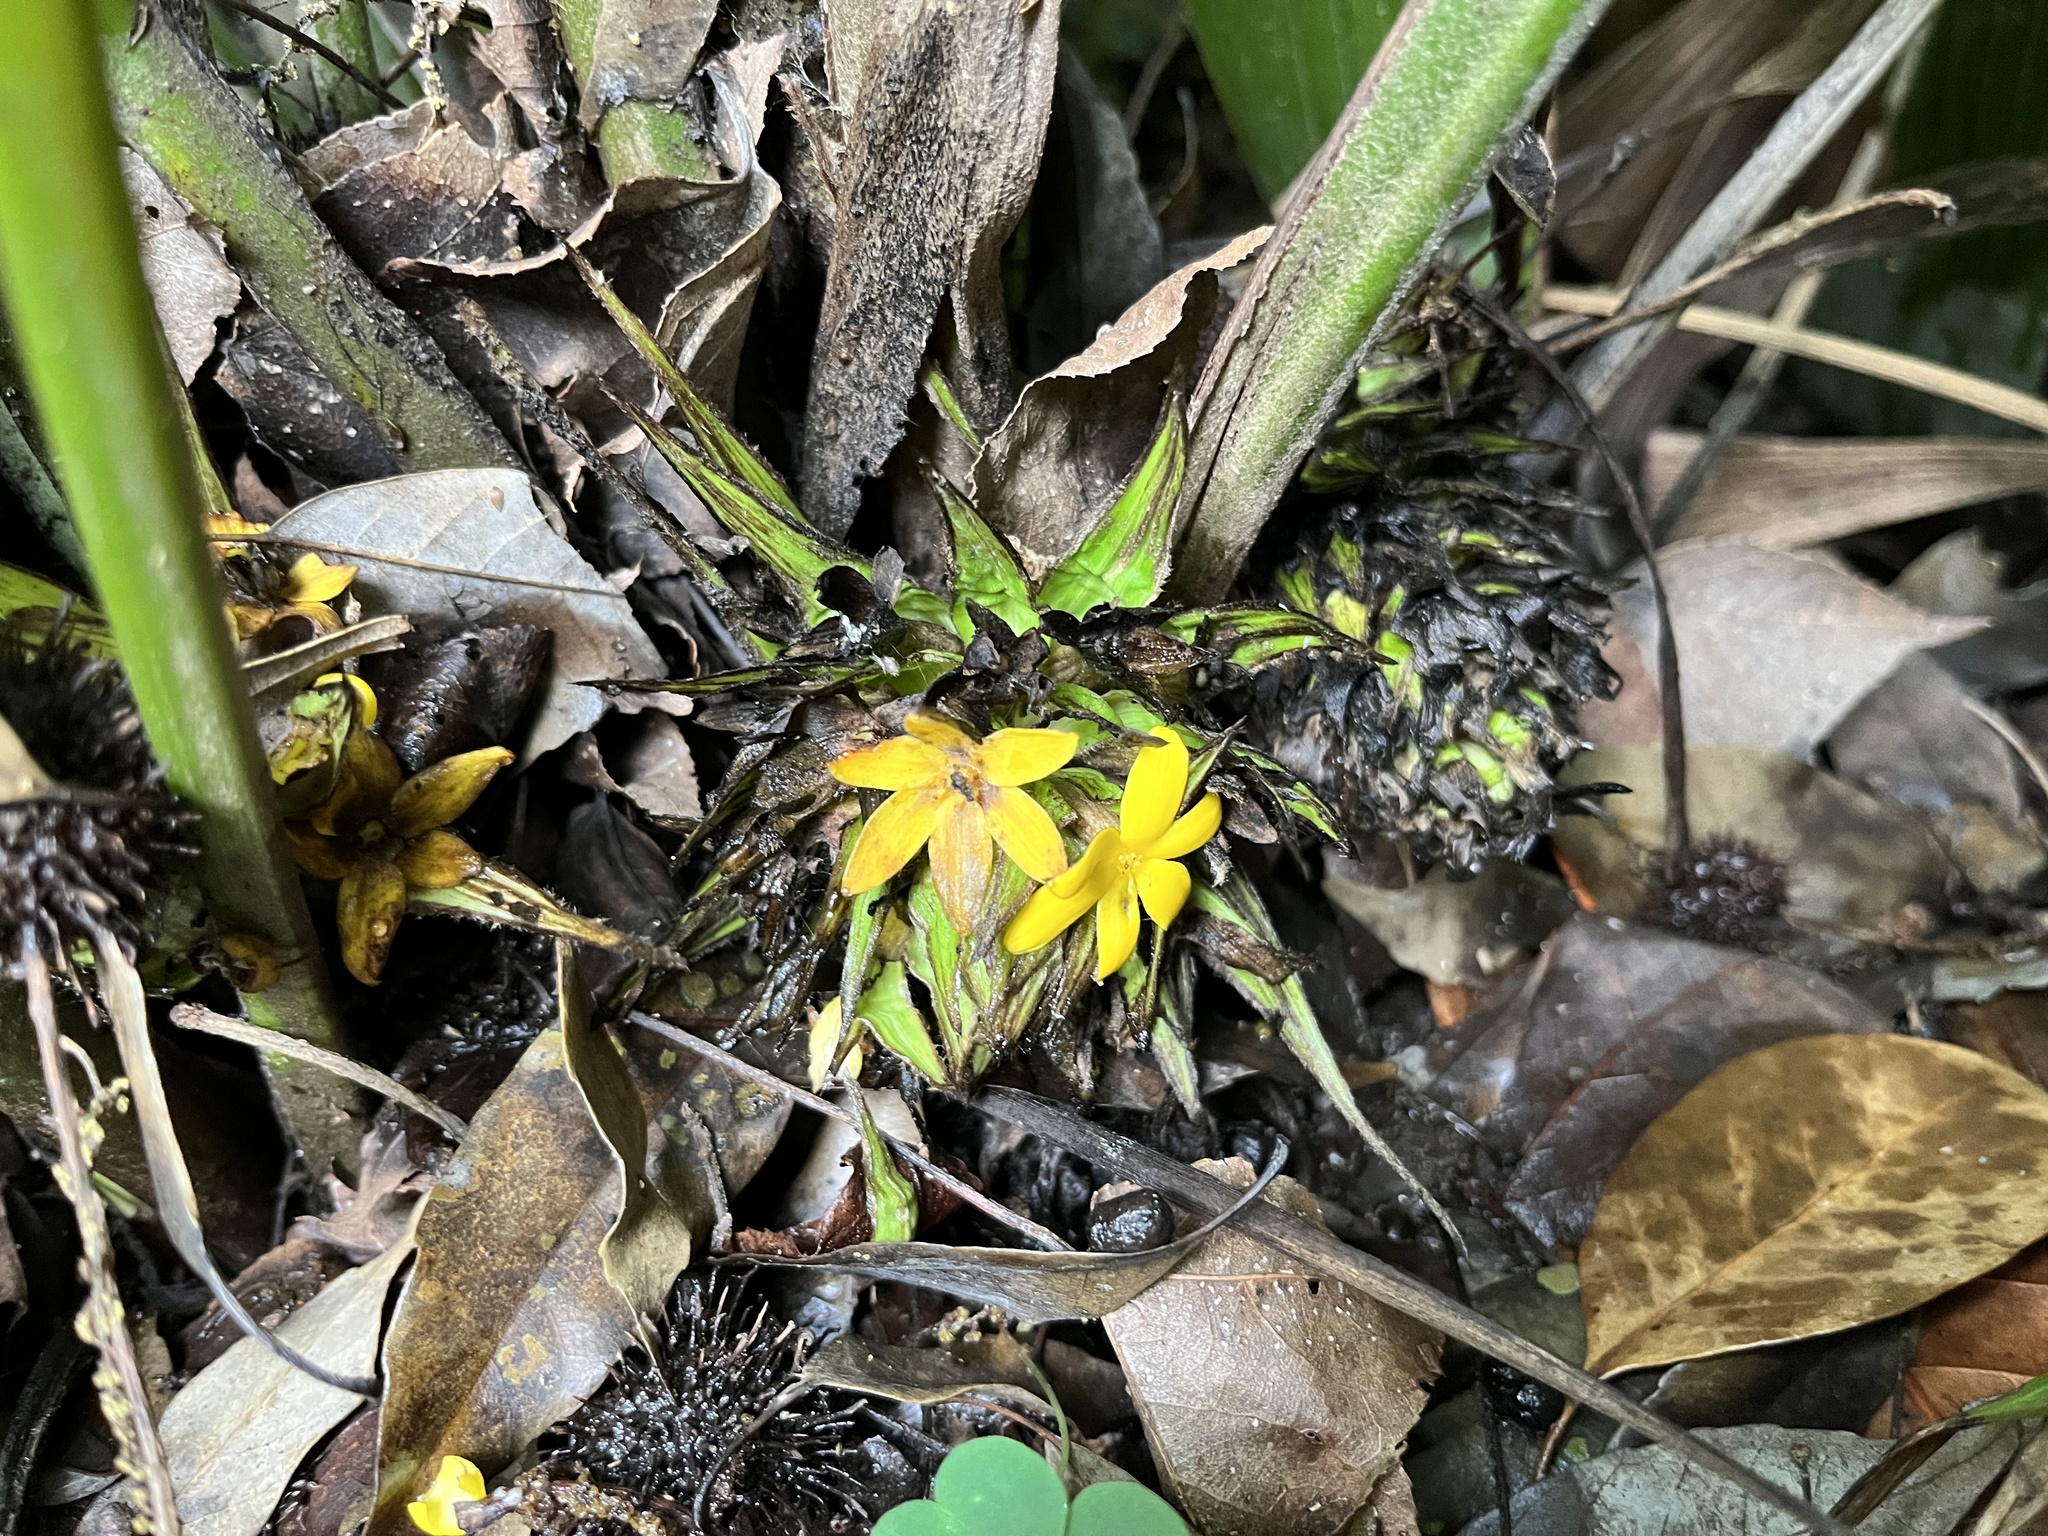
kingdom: Plantae
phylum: Tracheophyta
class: Liliopsida
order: Asparagales
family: Hypoxidaceae
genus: Curculigo
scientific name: Curculigo capitulata
